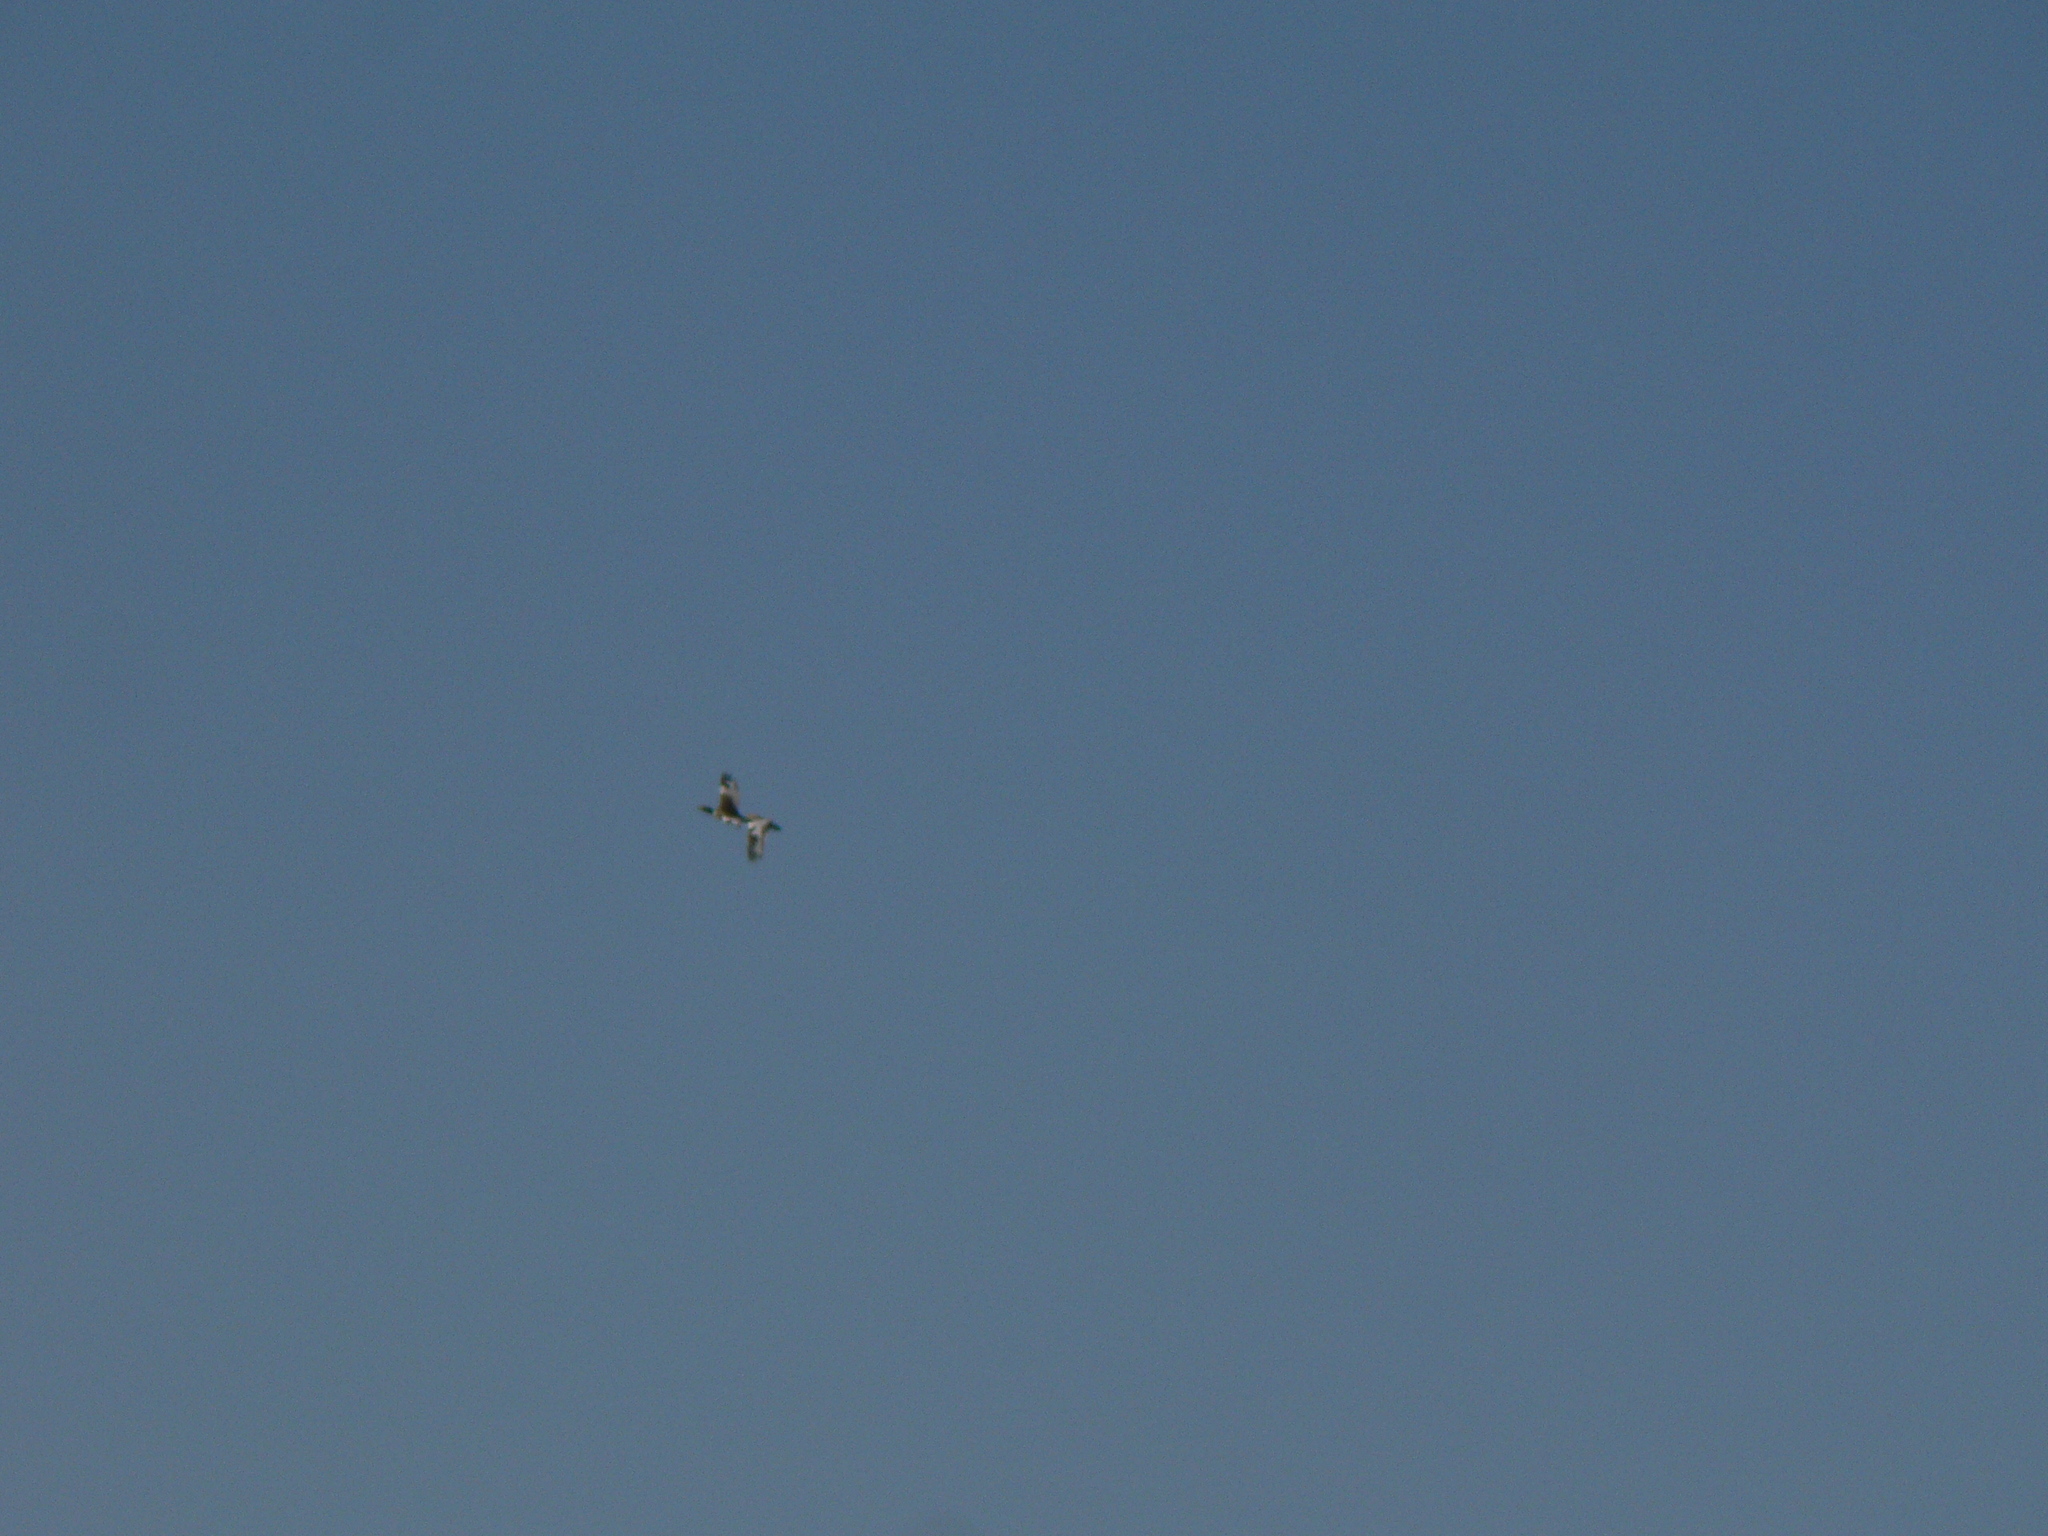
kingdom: Animalia
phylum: Chordata
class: Aves
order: Otidiformes
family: Otididae
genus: Tetrax
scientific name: Tetrax tetrax
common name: Little bustard
